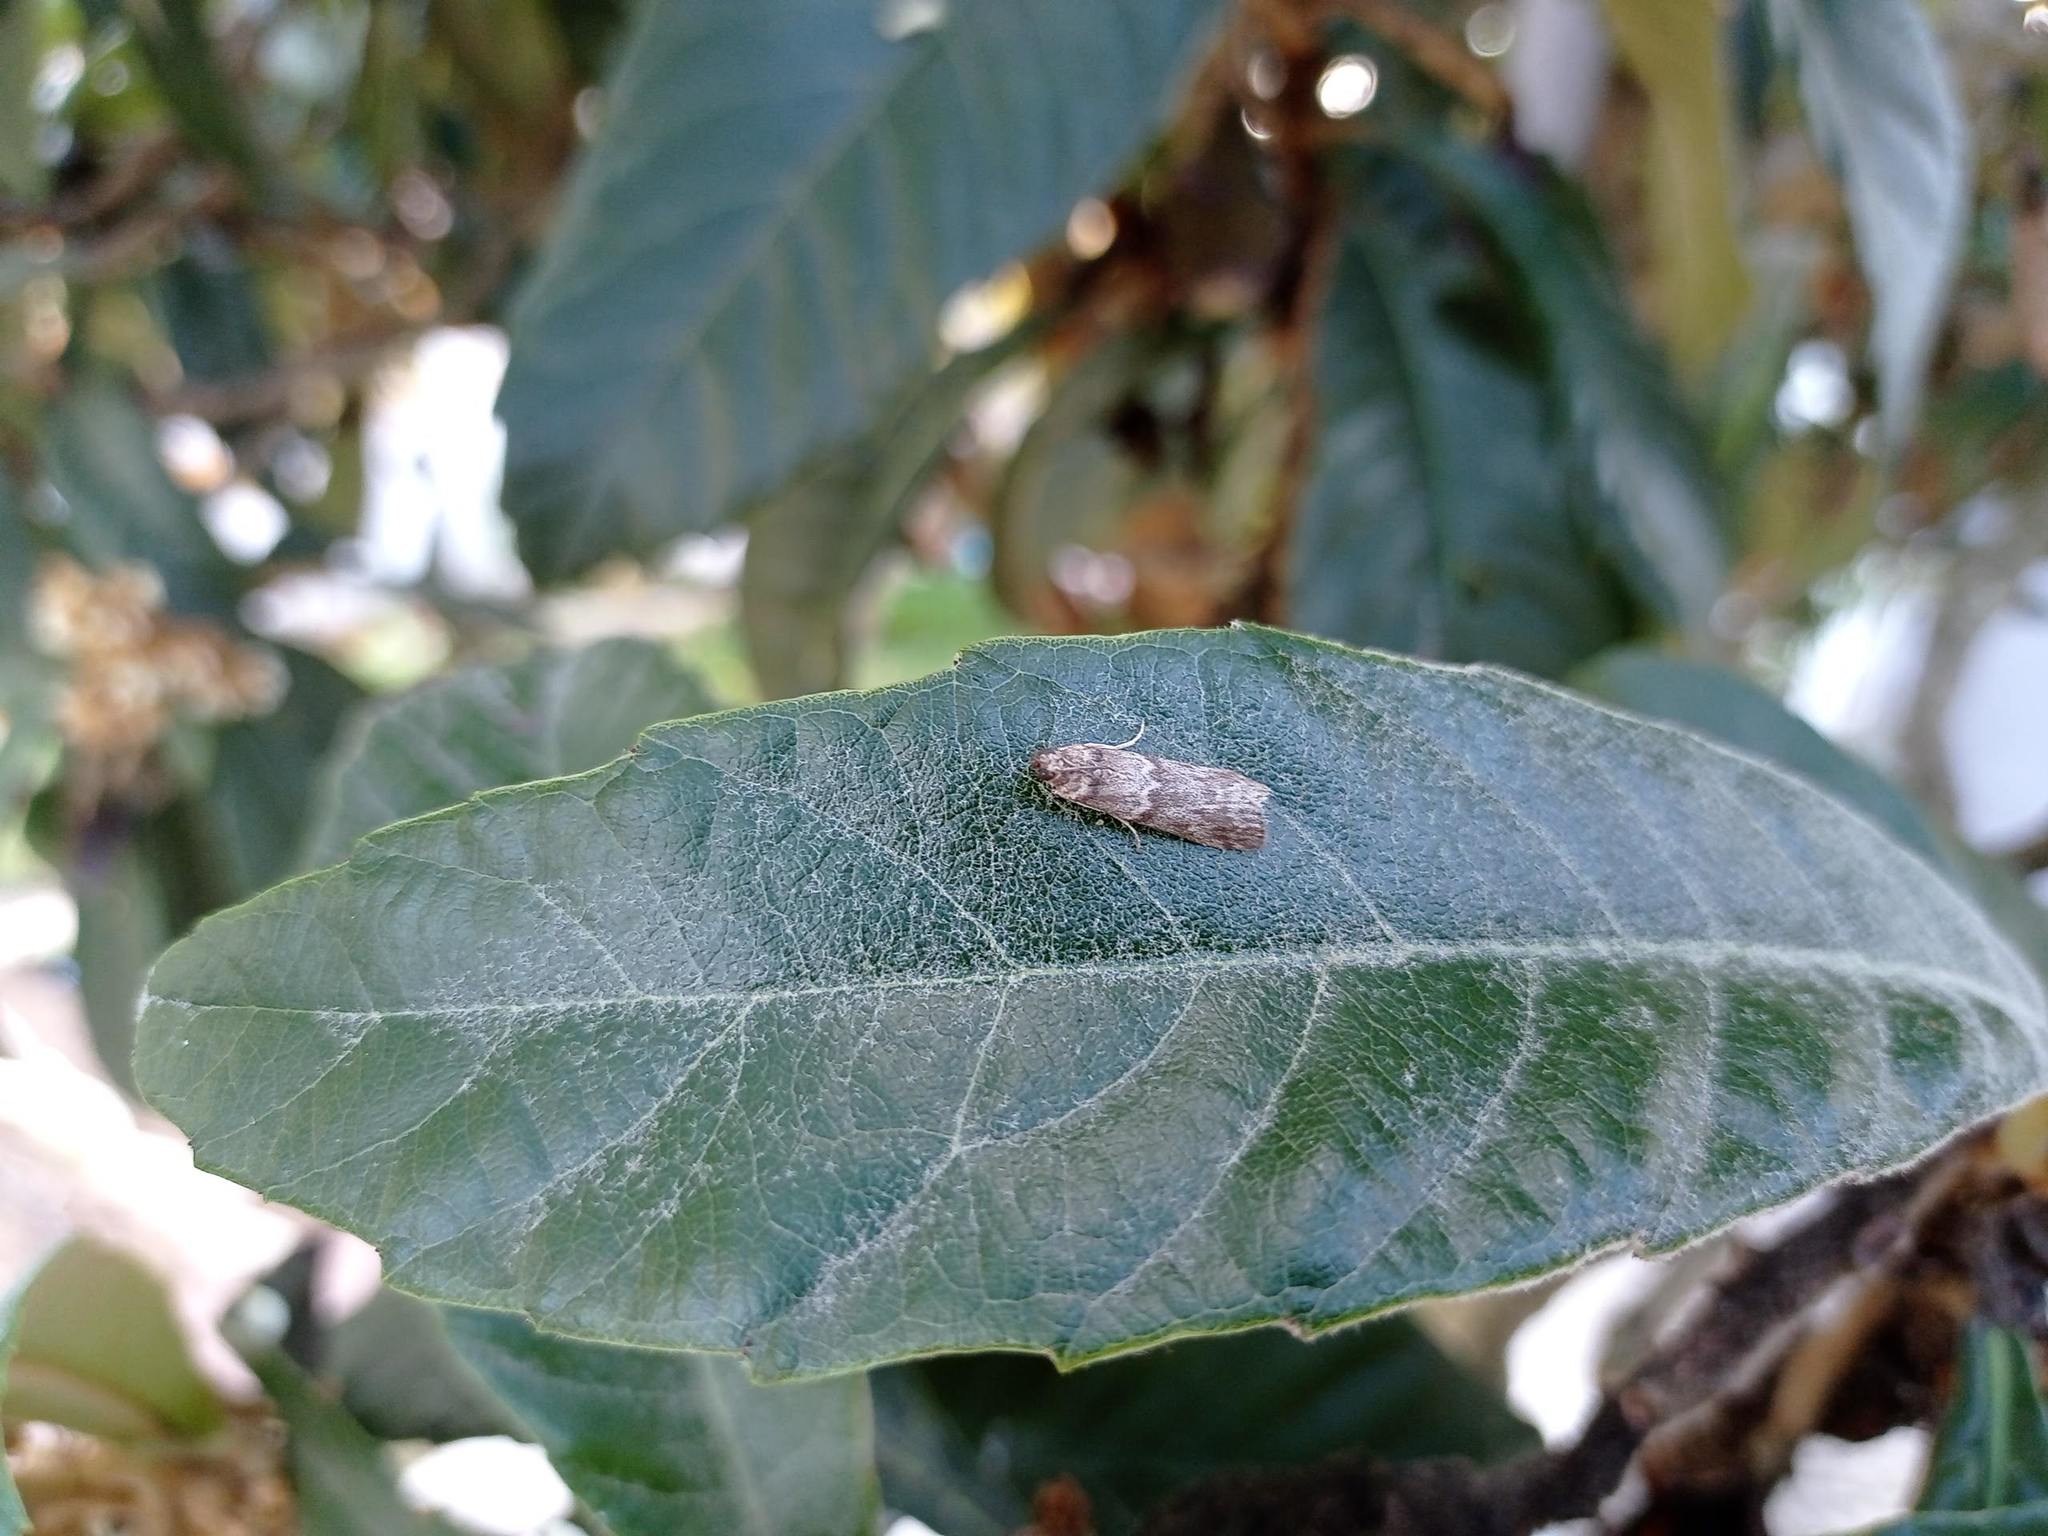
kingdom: Animalia
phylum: Arthropoda
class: Insecta
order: Lepidoptera
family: Pyralidae
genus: Ectomyelois
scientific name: Ectomyelois ceratoniae
